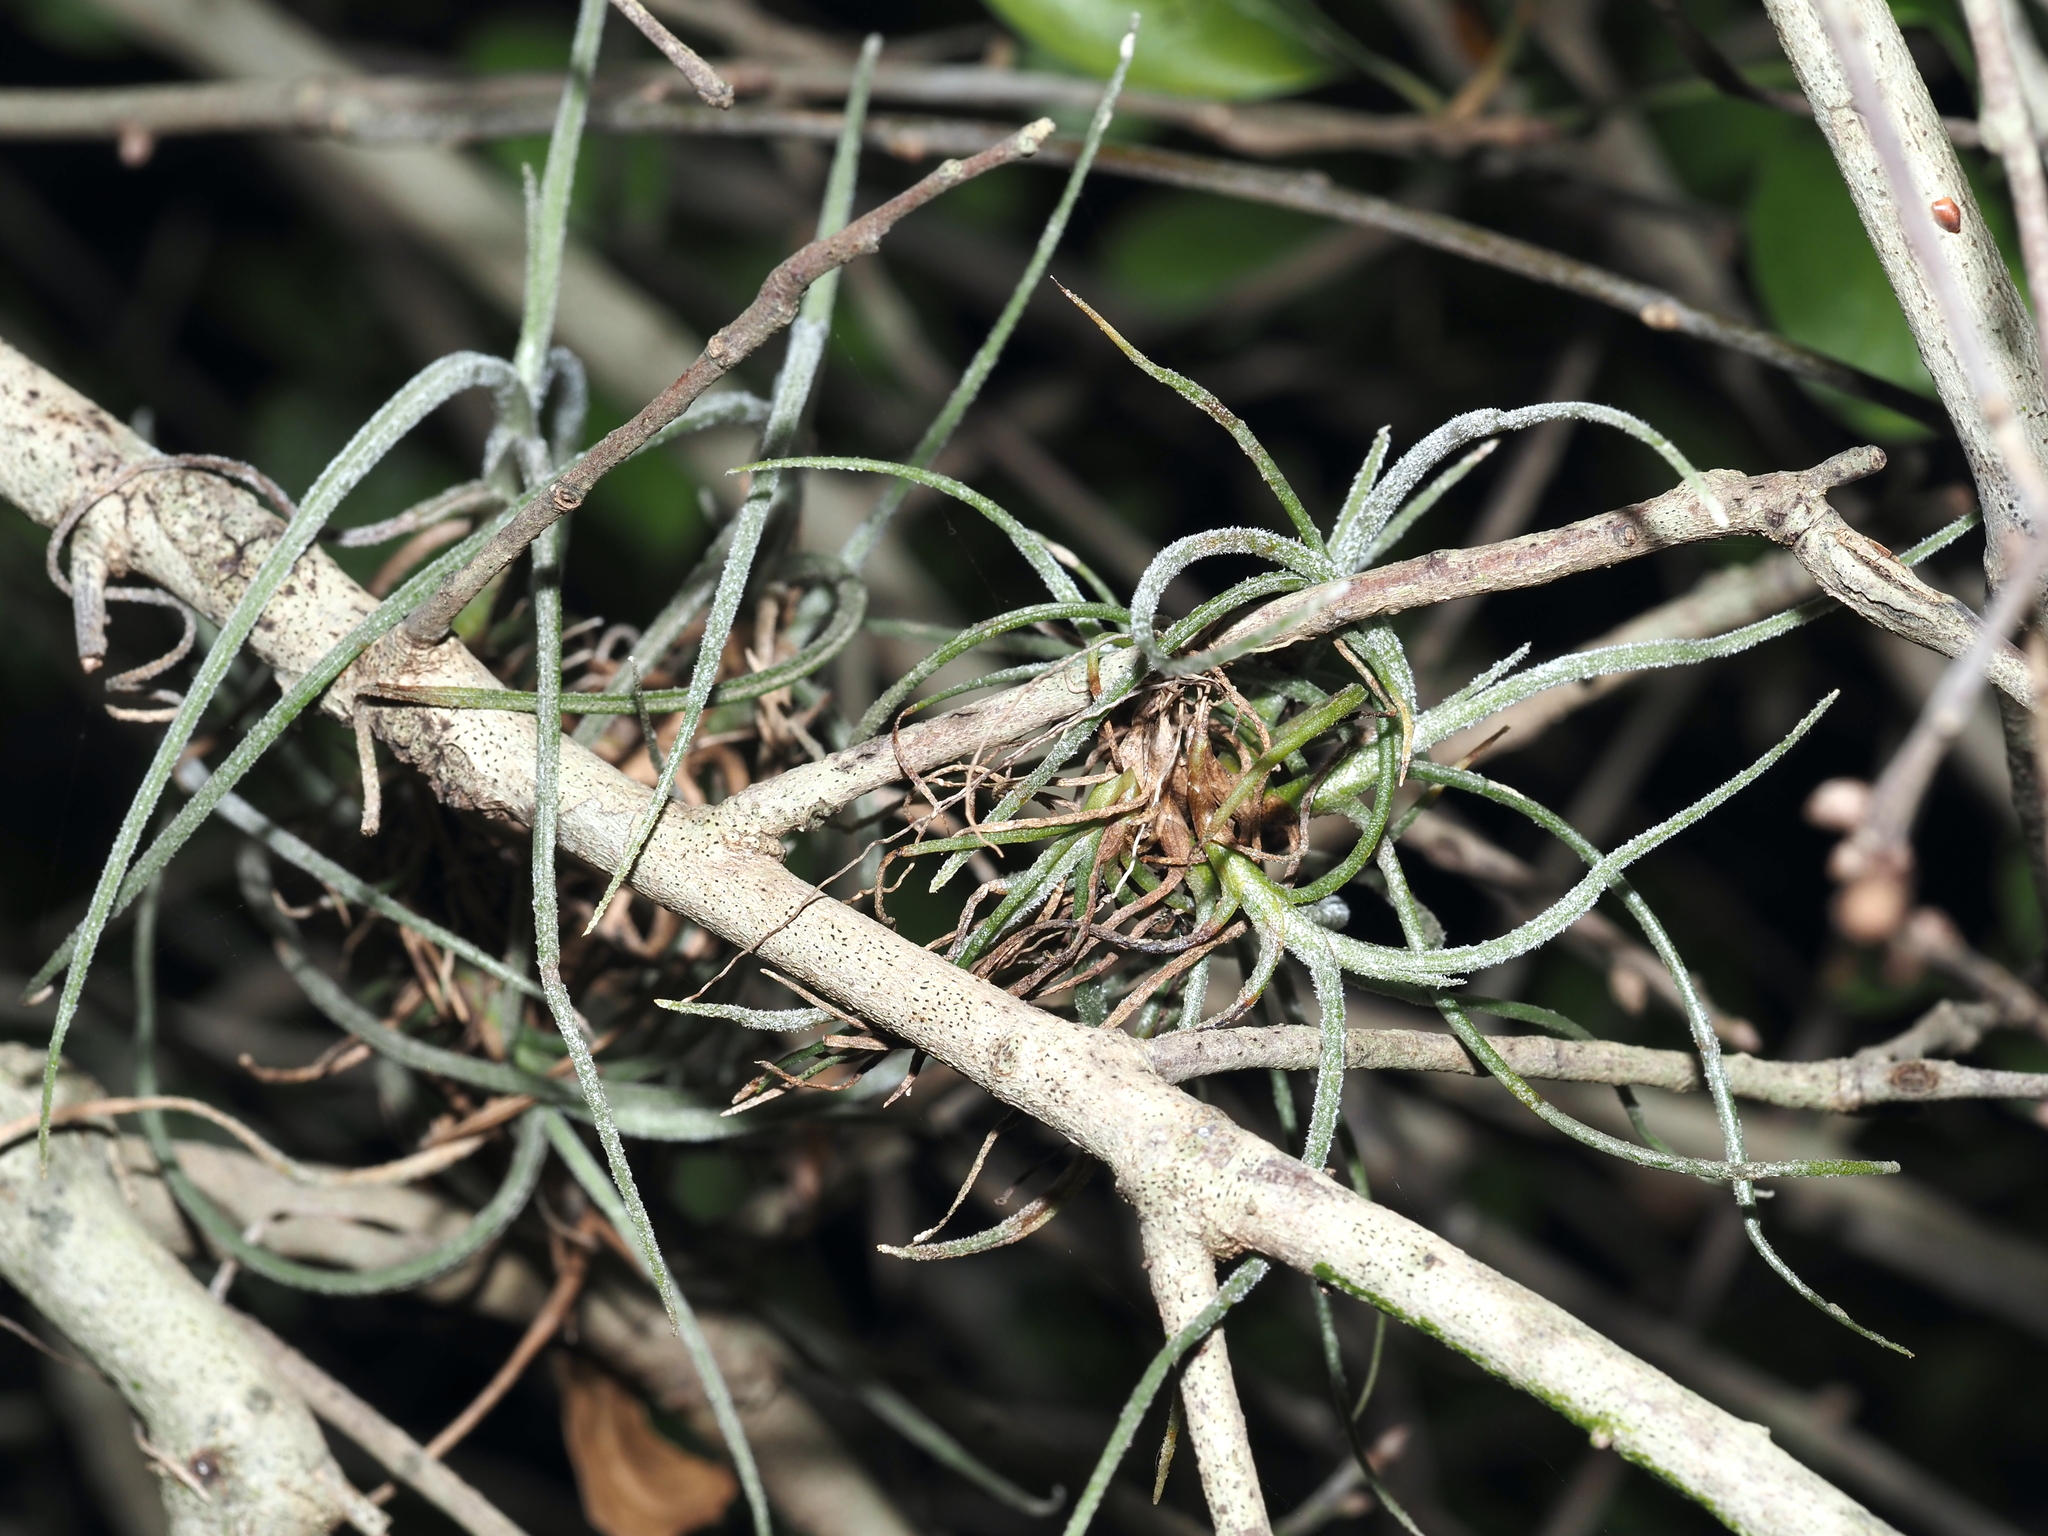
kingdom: Plantae
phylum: Tracheophyta
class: Liliopsida
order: Poales
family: Bromeliaceae
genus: Tillandsia
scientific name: Tillandsia recurvata
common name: Small ballmoss
